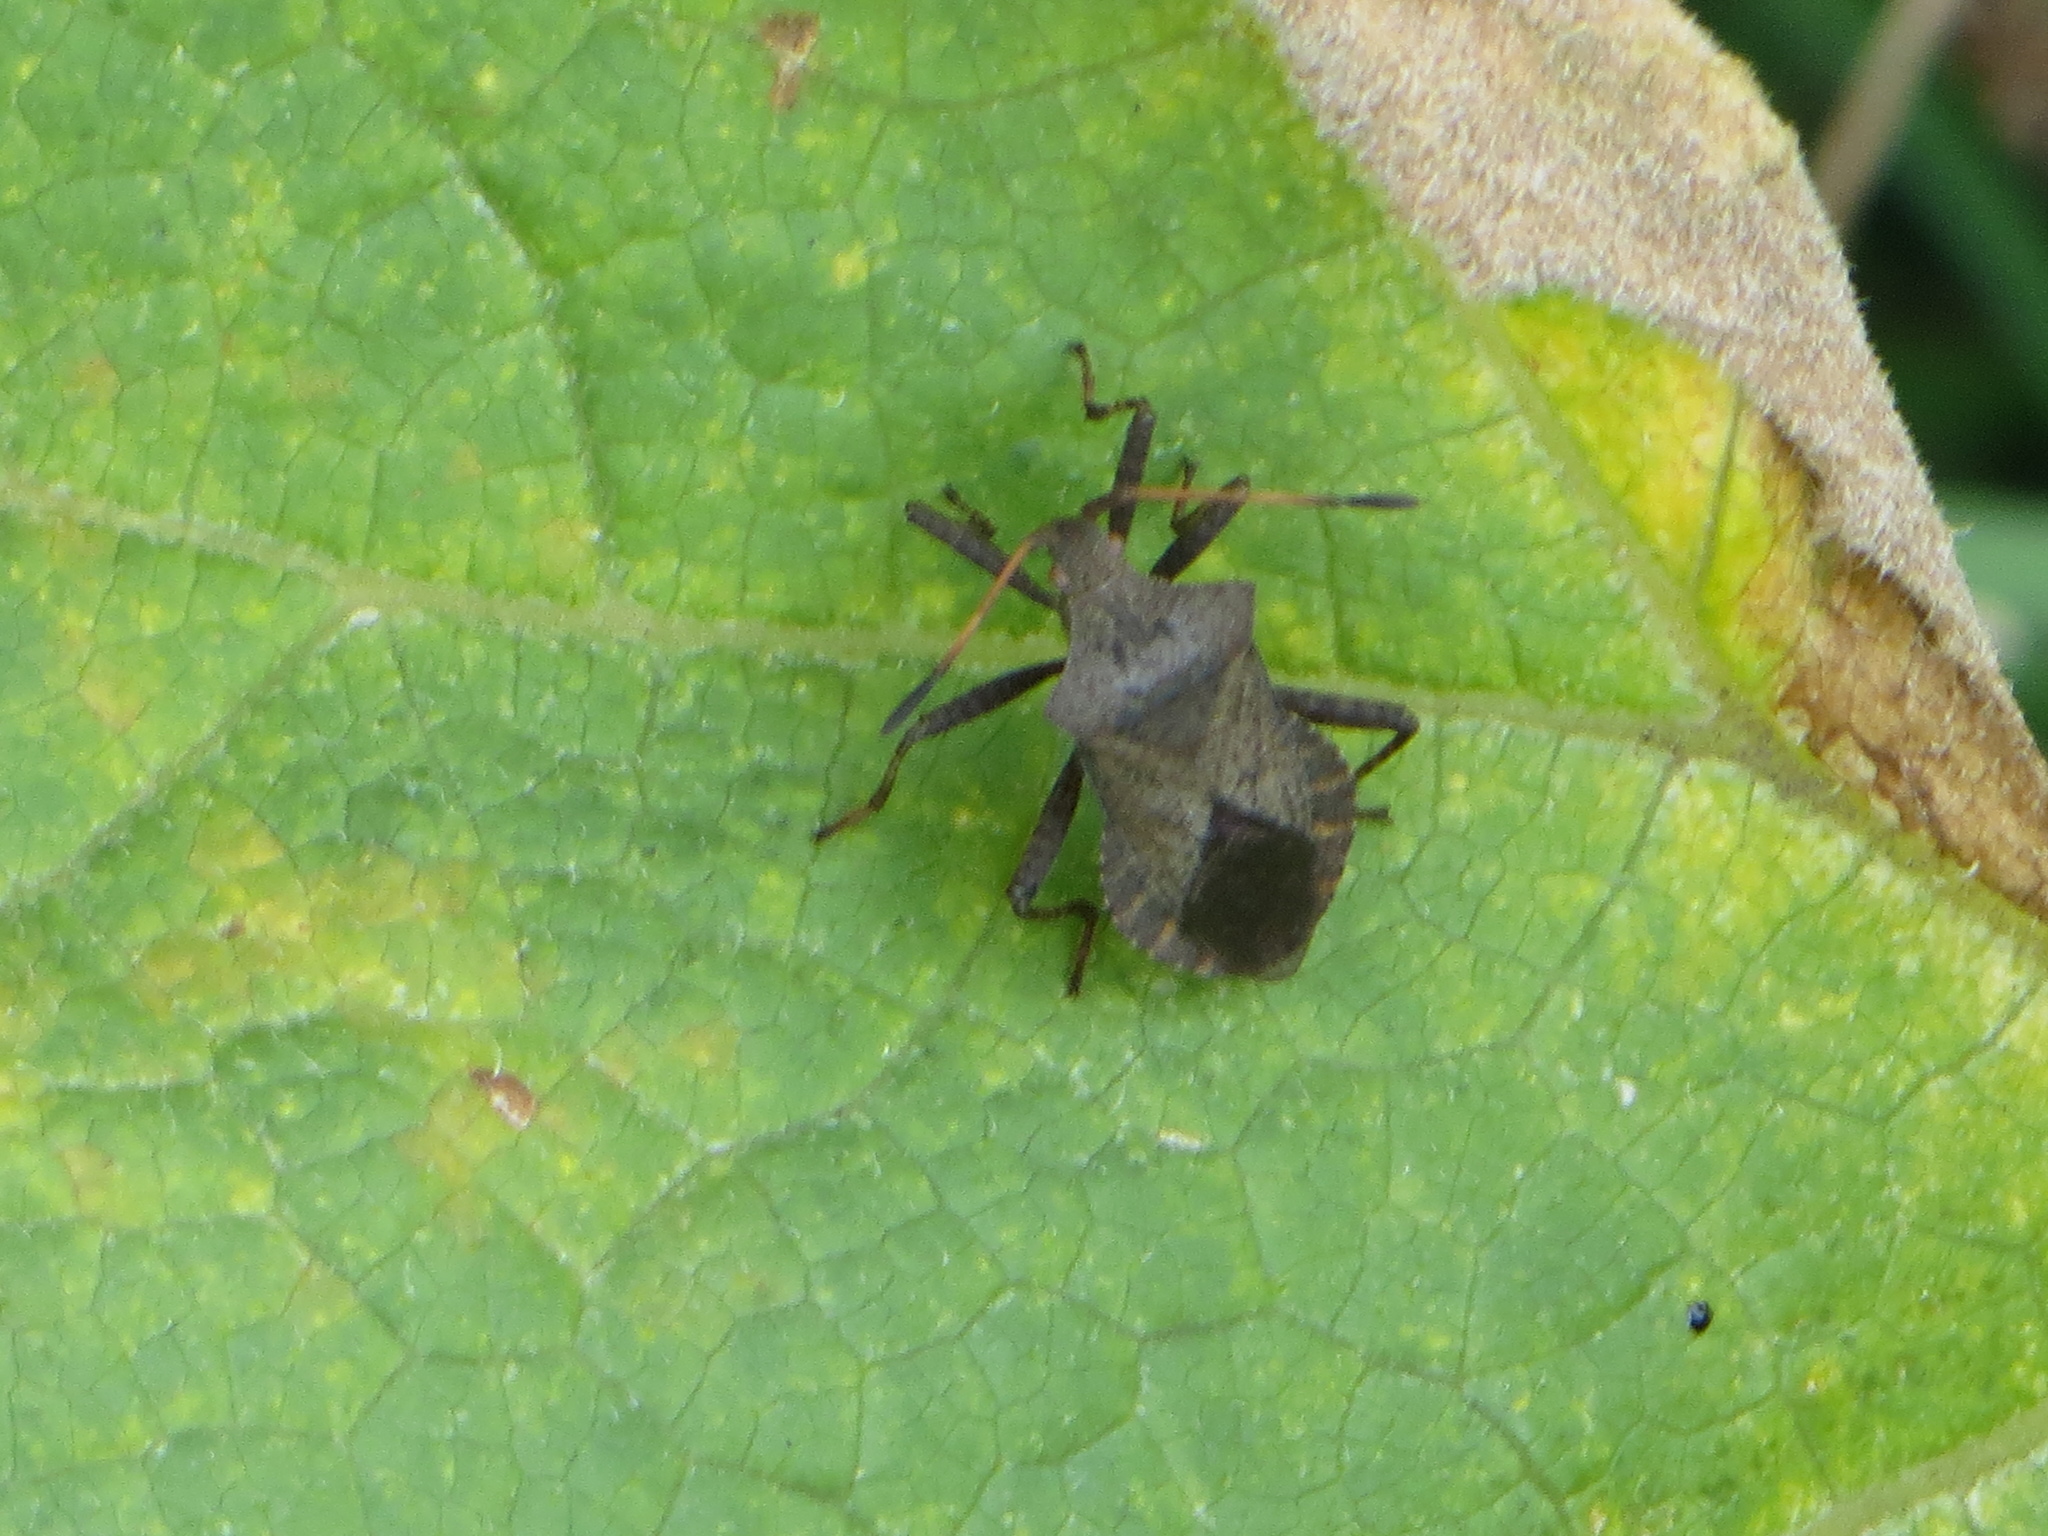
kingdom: Animalia
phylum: Arthropoda
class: Insecta
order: Hemiptera
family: Coreidae
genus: Coreus
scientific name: Coreus marginatus
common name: Dock bug
